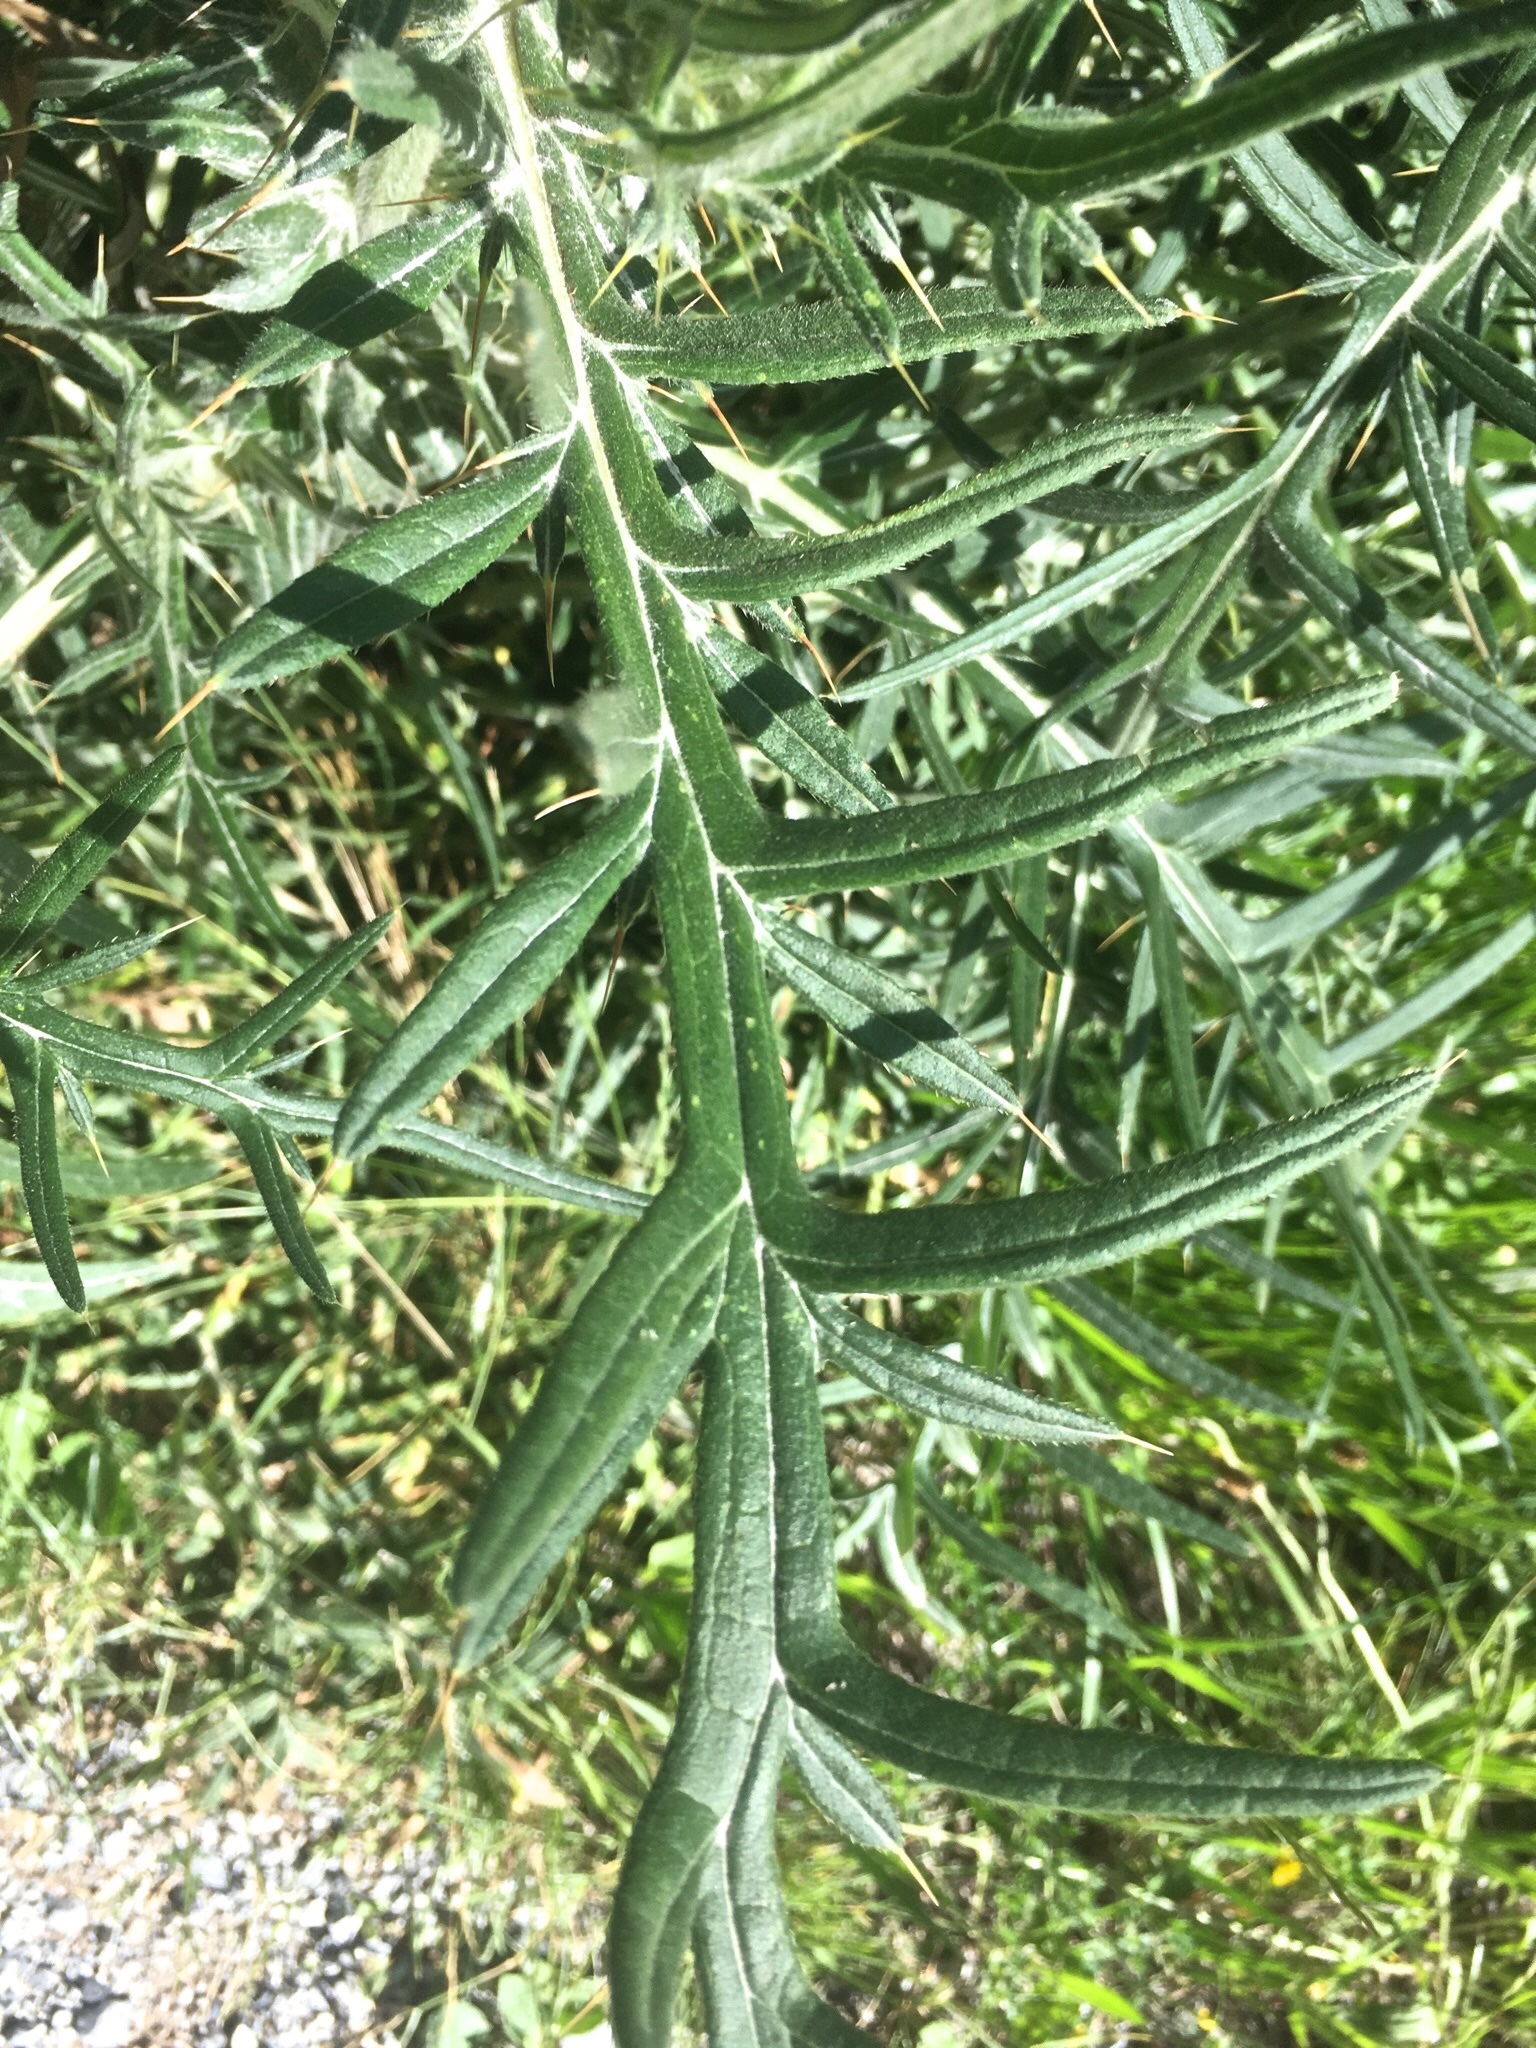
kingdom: Plantae
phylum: Tracheophyta
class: Magnoliopsida
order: Asterales
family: Asteraceae
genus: Lophiolepis
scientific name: Lophiolepis eriophora
